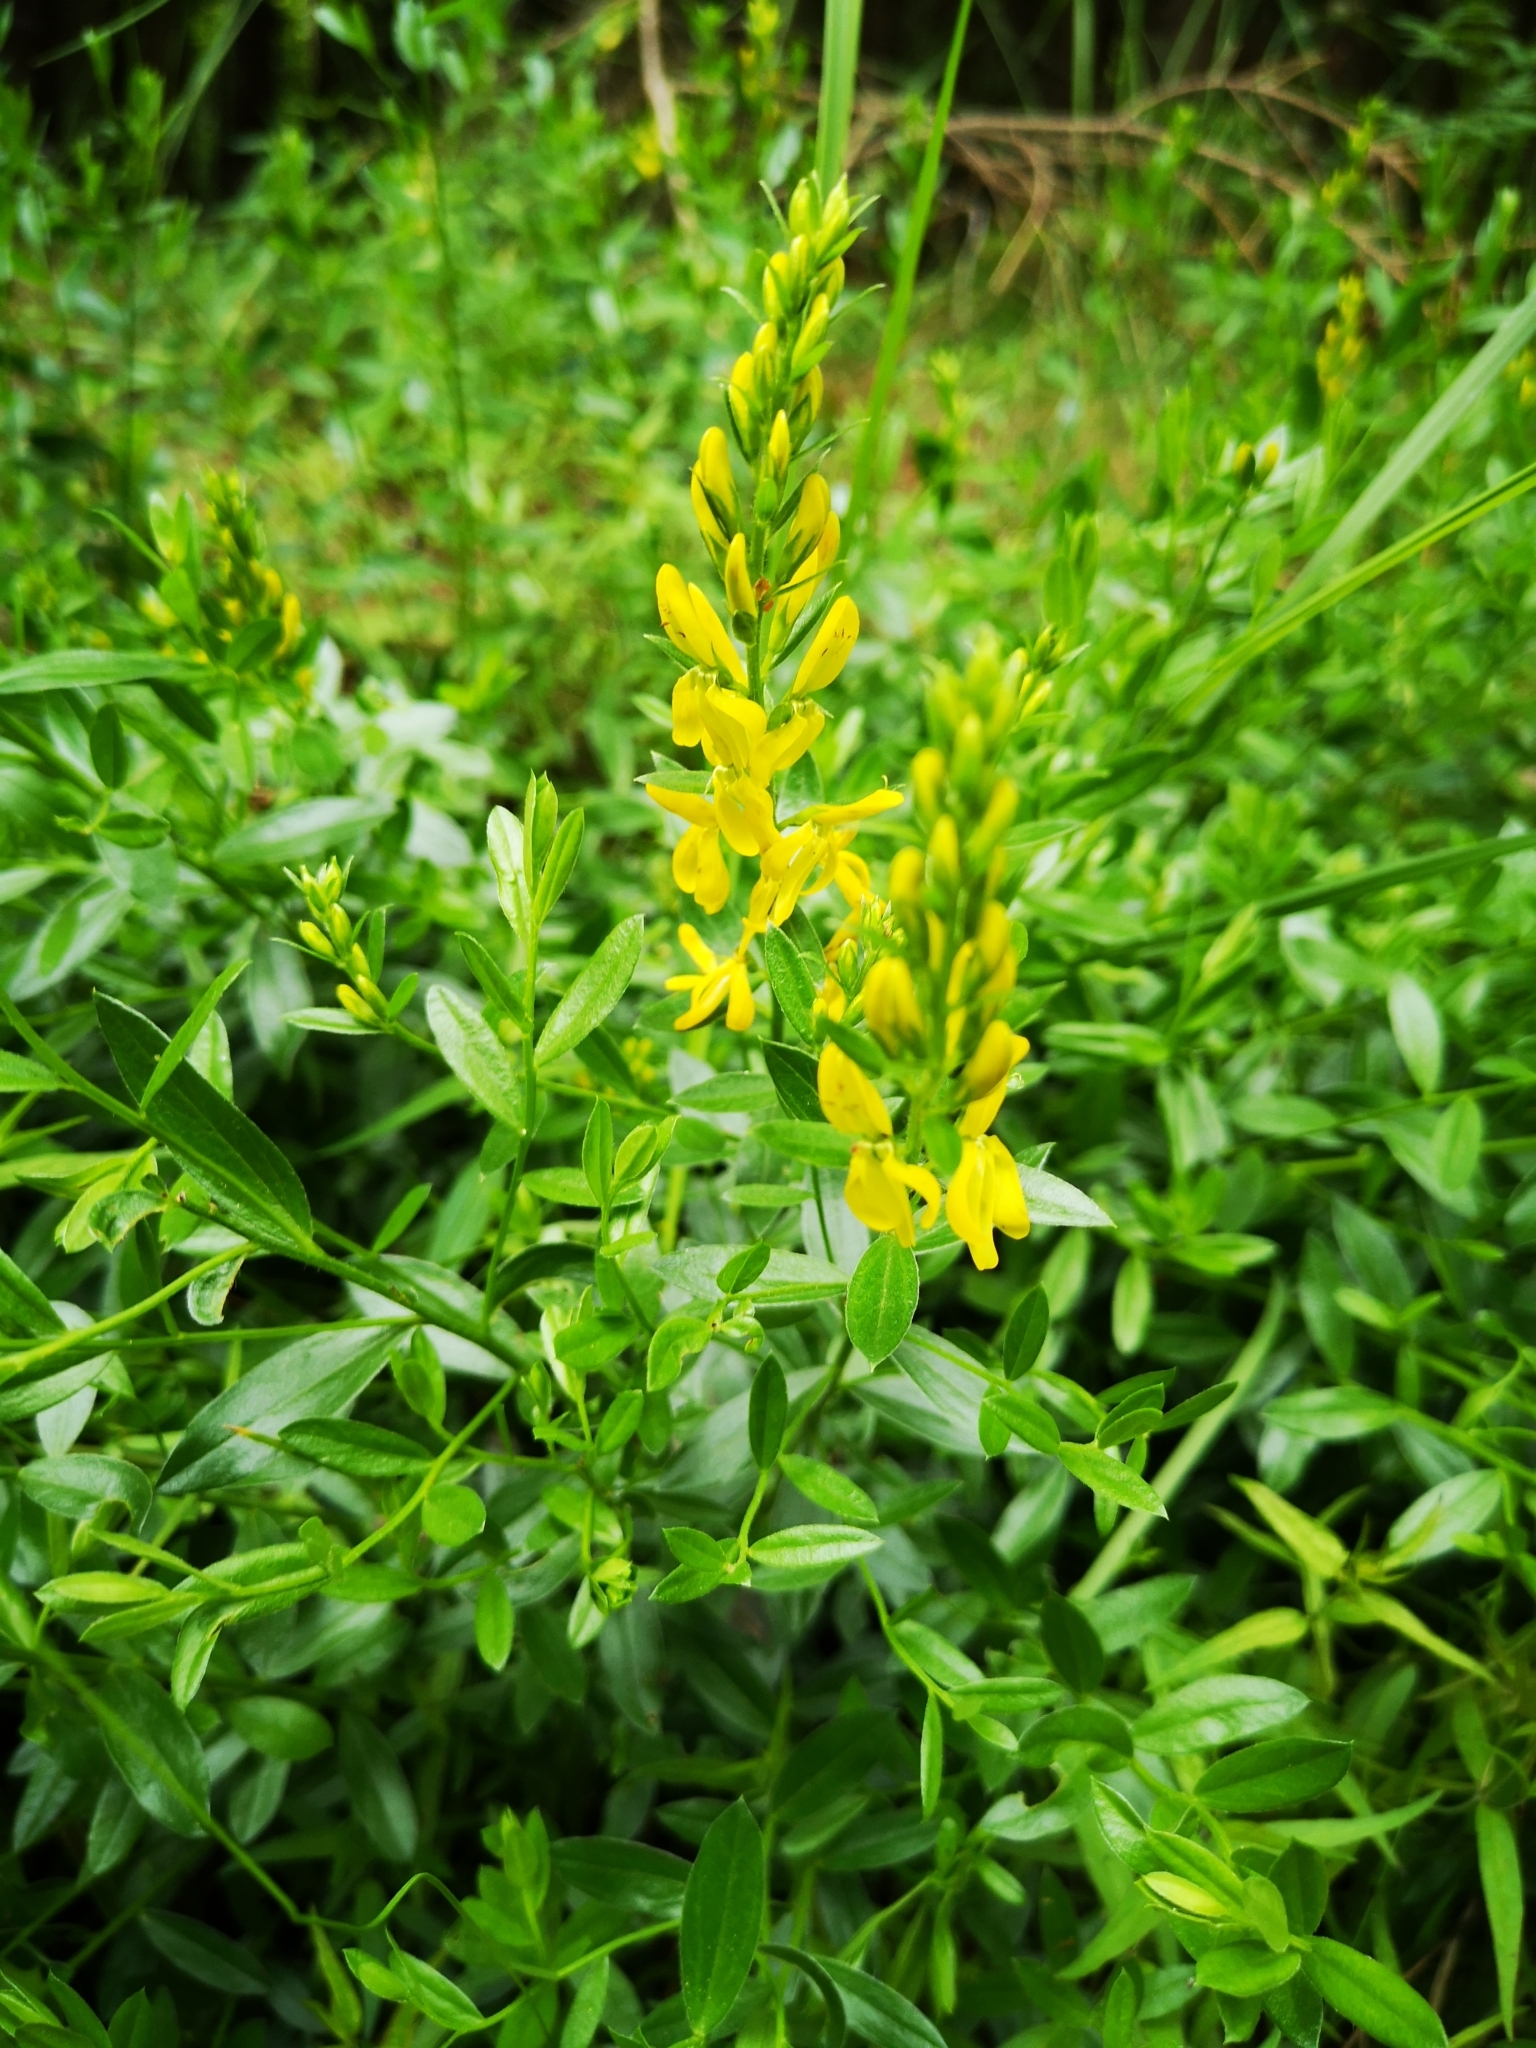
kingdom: Plantae
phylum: Tracheophyta
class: Magnoliopsida
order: Fabales
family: Fabaceae
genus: Genista
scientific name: Genista tinctoria
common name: Dyer's greenweed
